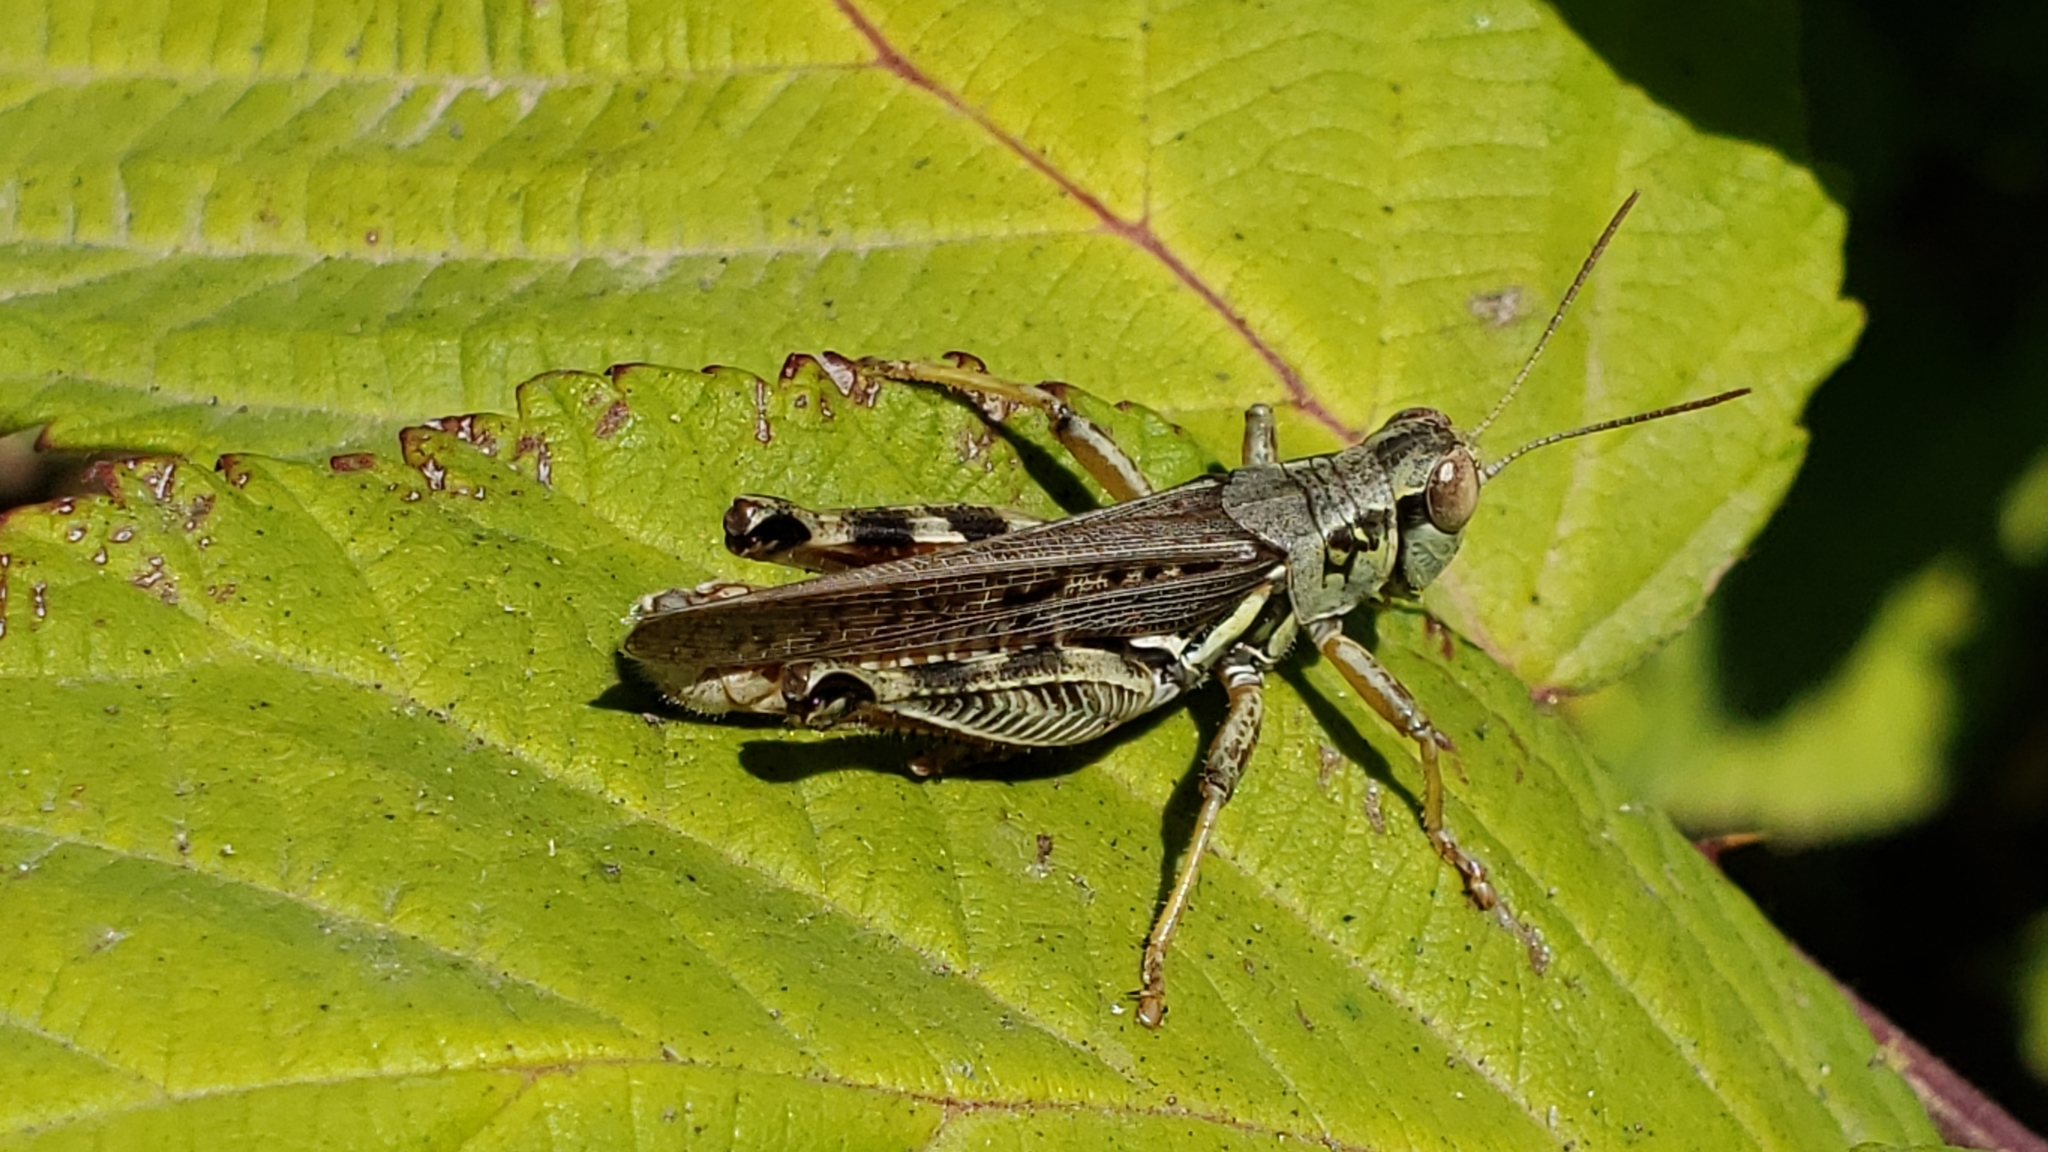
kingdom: Animalia
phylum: Arthropoda
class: Insecta
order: Orthoptera
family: Acrididae
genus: Melanoplus
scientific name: Melanoplus femurrubrum
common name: Red-legged grasshopper
